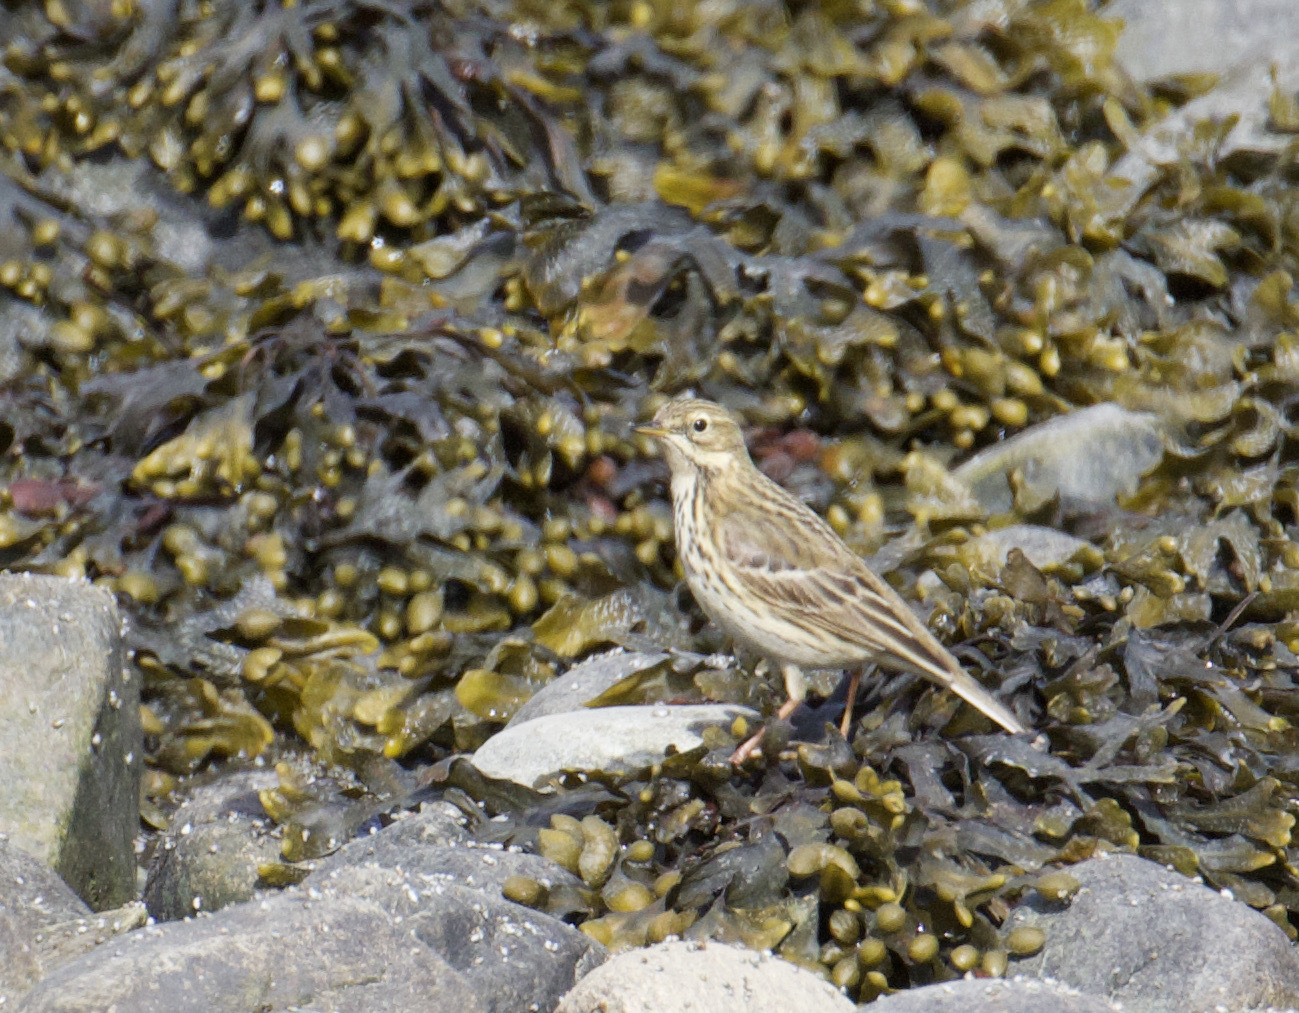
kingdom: Animalia
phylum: Chordata
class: Aves
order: Passeriformes
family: Motacillidae
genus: Anthus
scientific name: Anthus pratensis
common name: Meadow pipit
